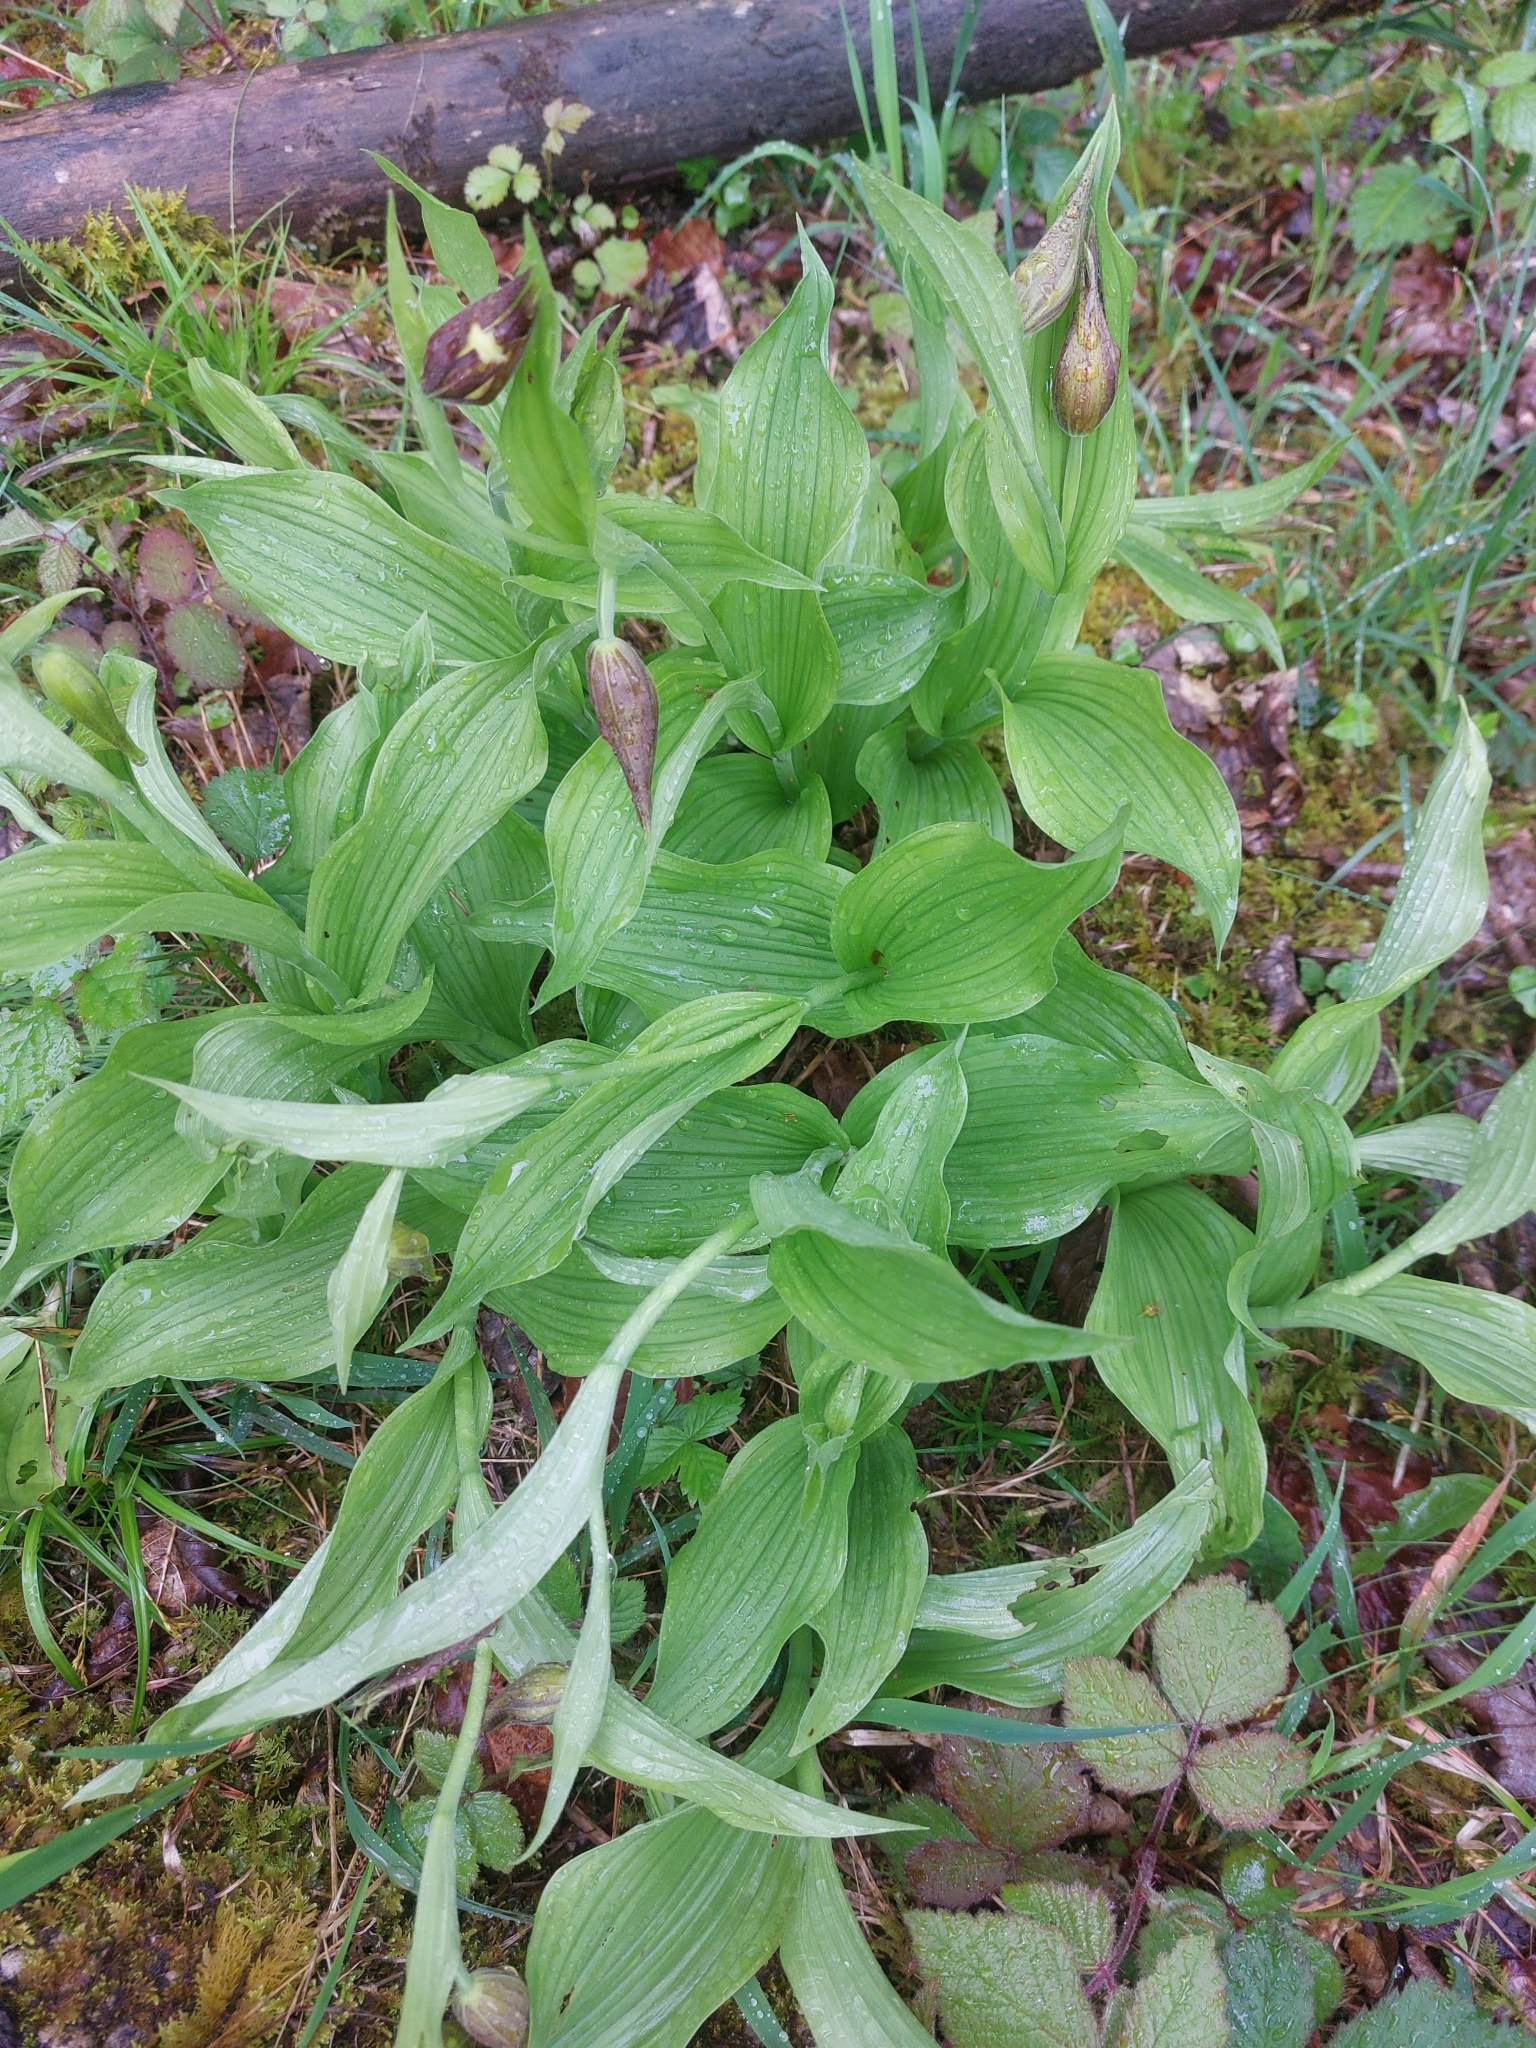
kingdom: Plantae
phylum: Tracheophyta
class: Liliopsida
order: Asparagales
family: Orchidaceae
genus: Cypripedium
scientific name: Cypripedium calceolus
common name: Lady's-slipper
